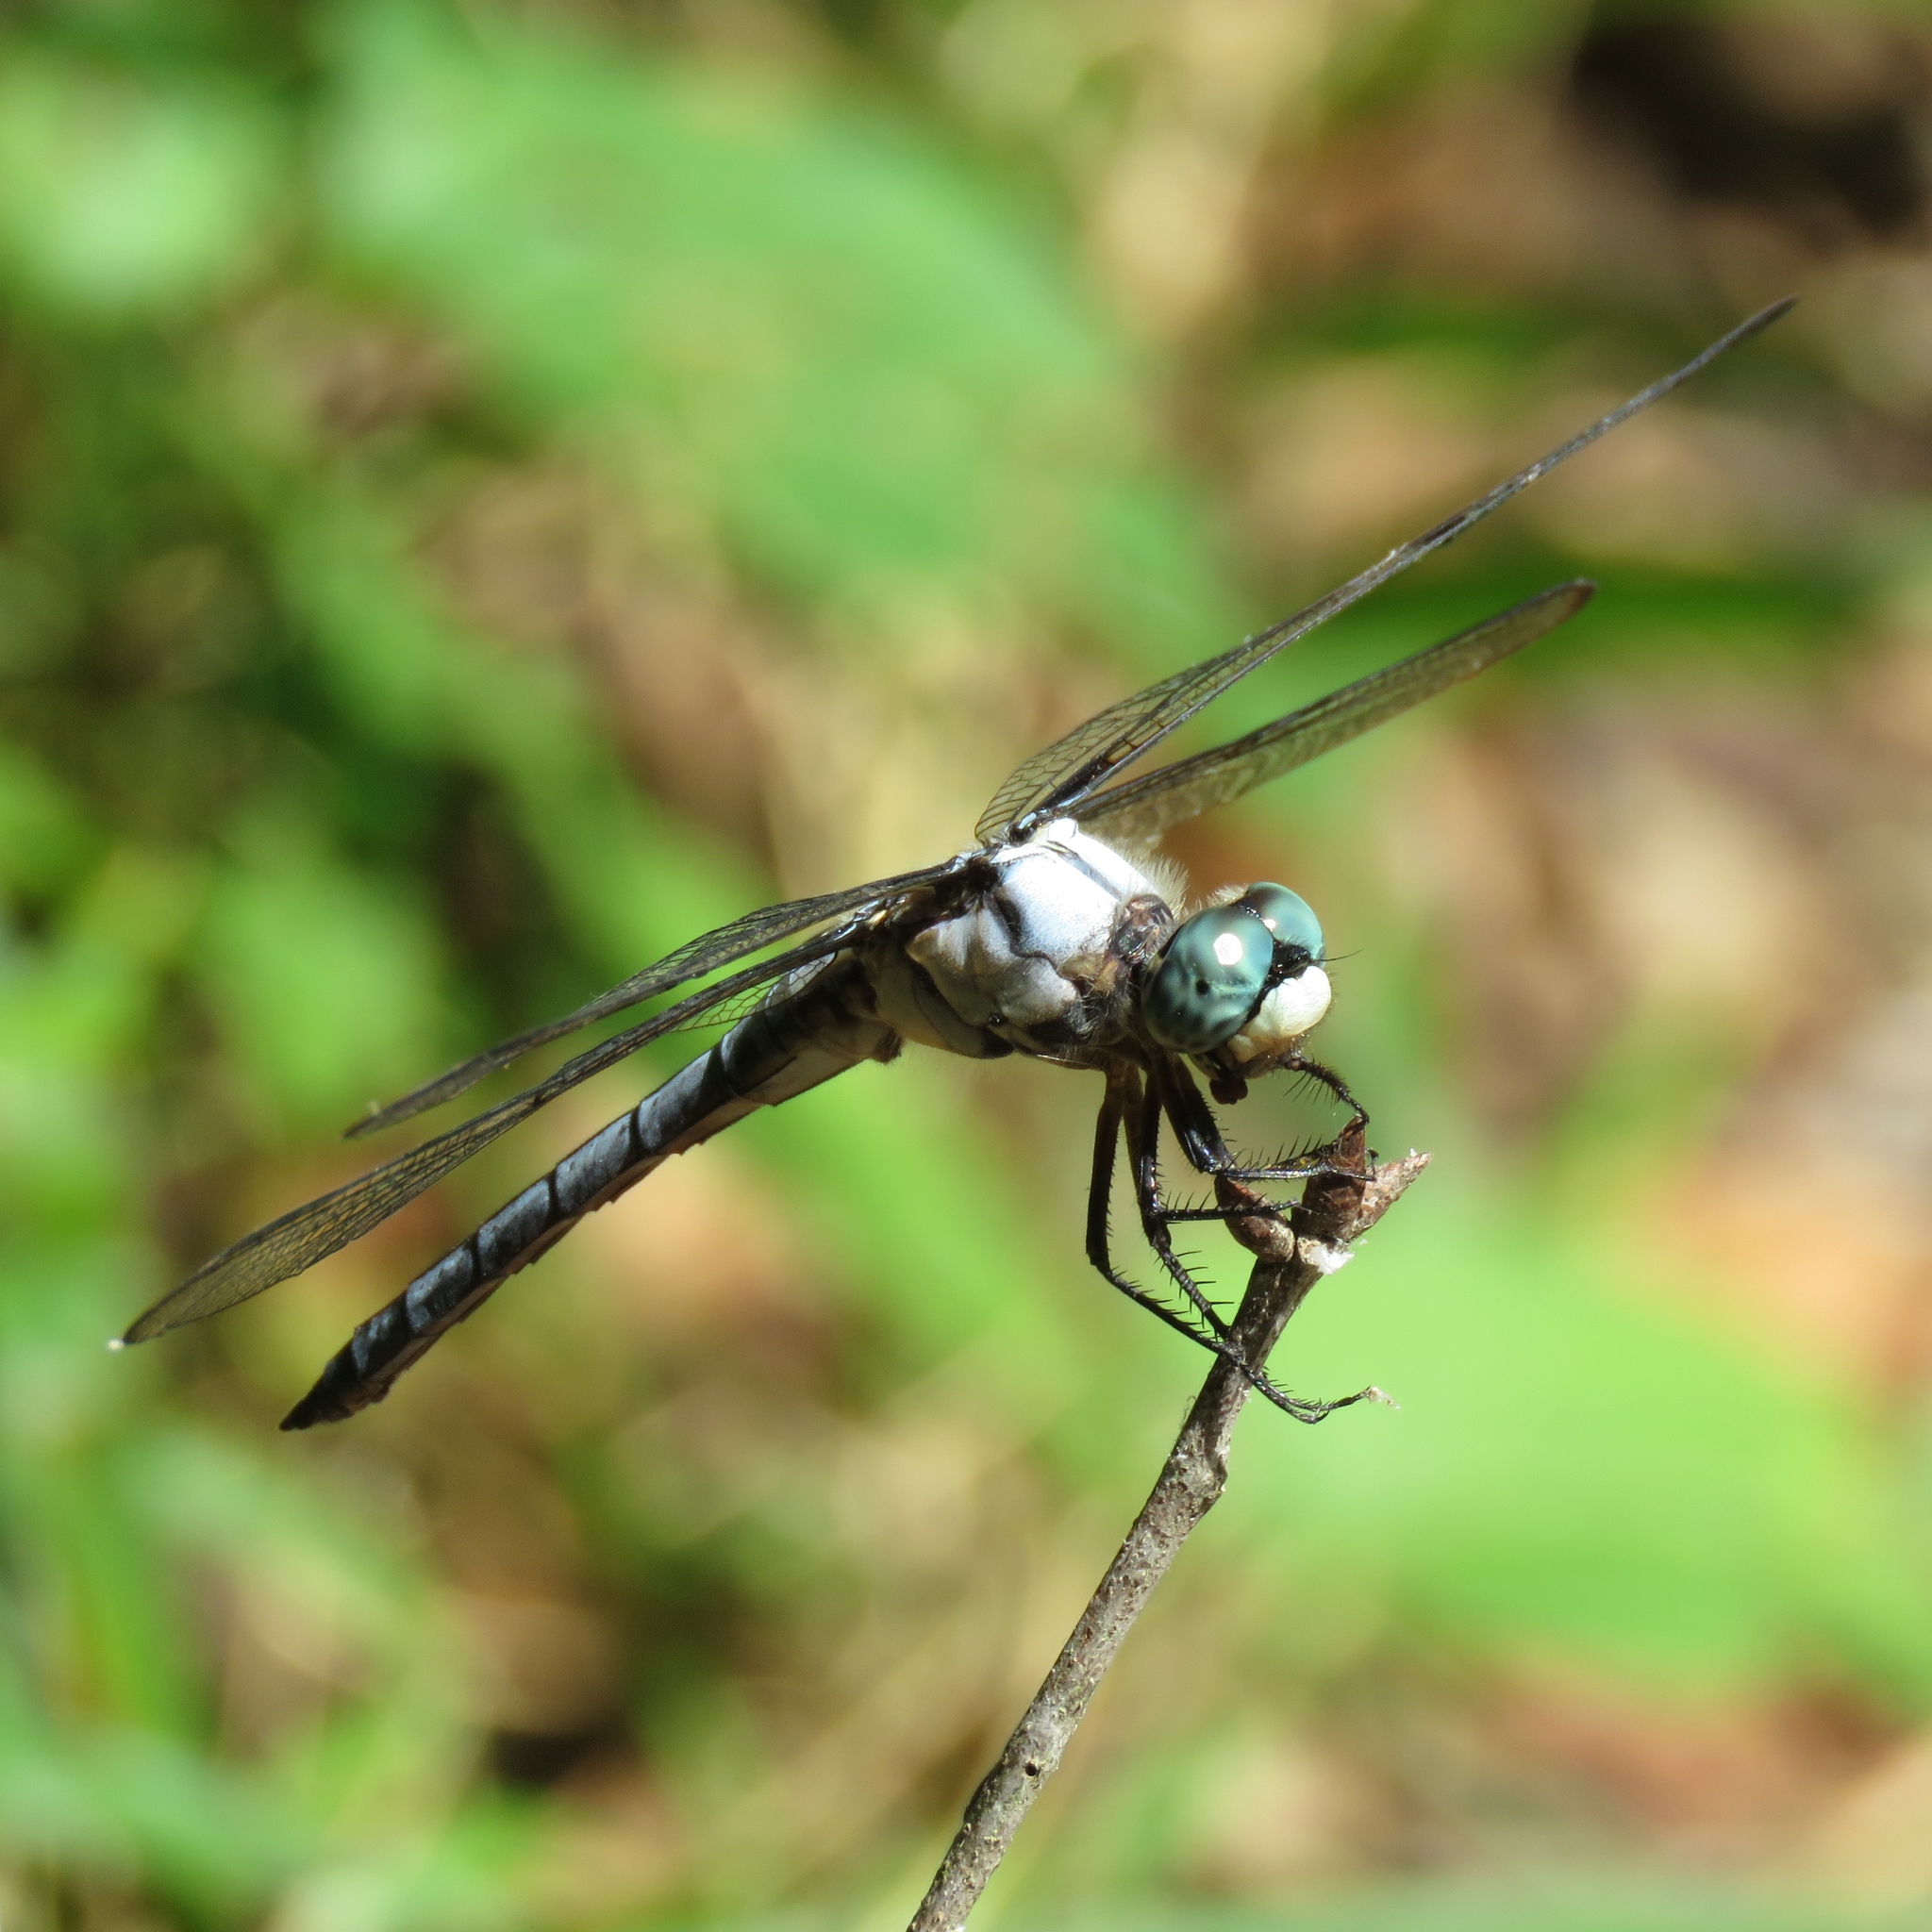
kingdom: Animalia
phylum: Arthropoda
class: Insecta
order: Odonata
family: Libellulidae
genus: Libellula
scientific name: Libellula vibrans
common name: Great blue skimmer
